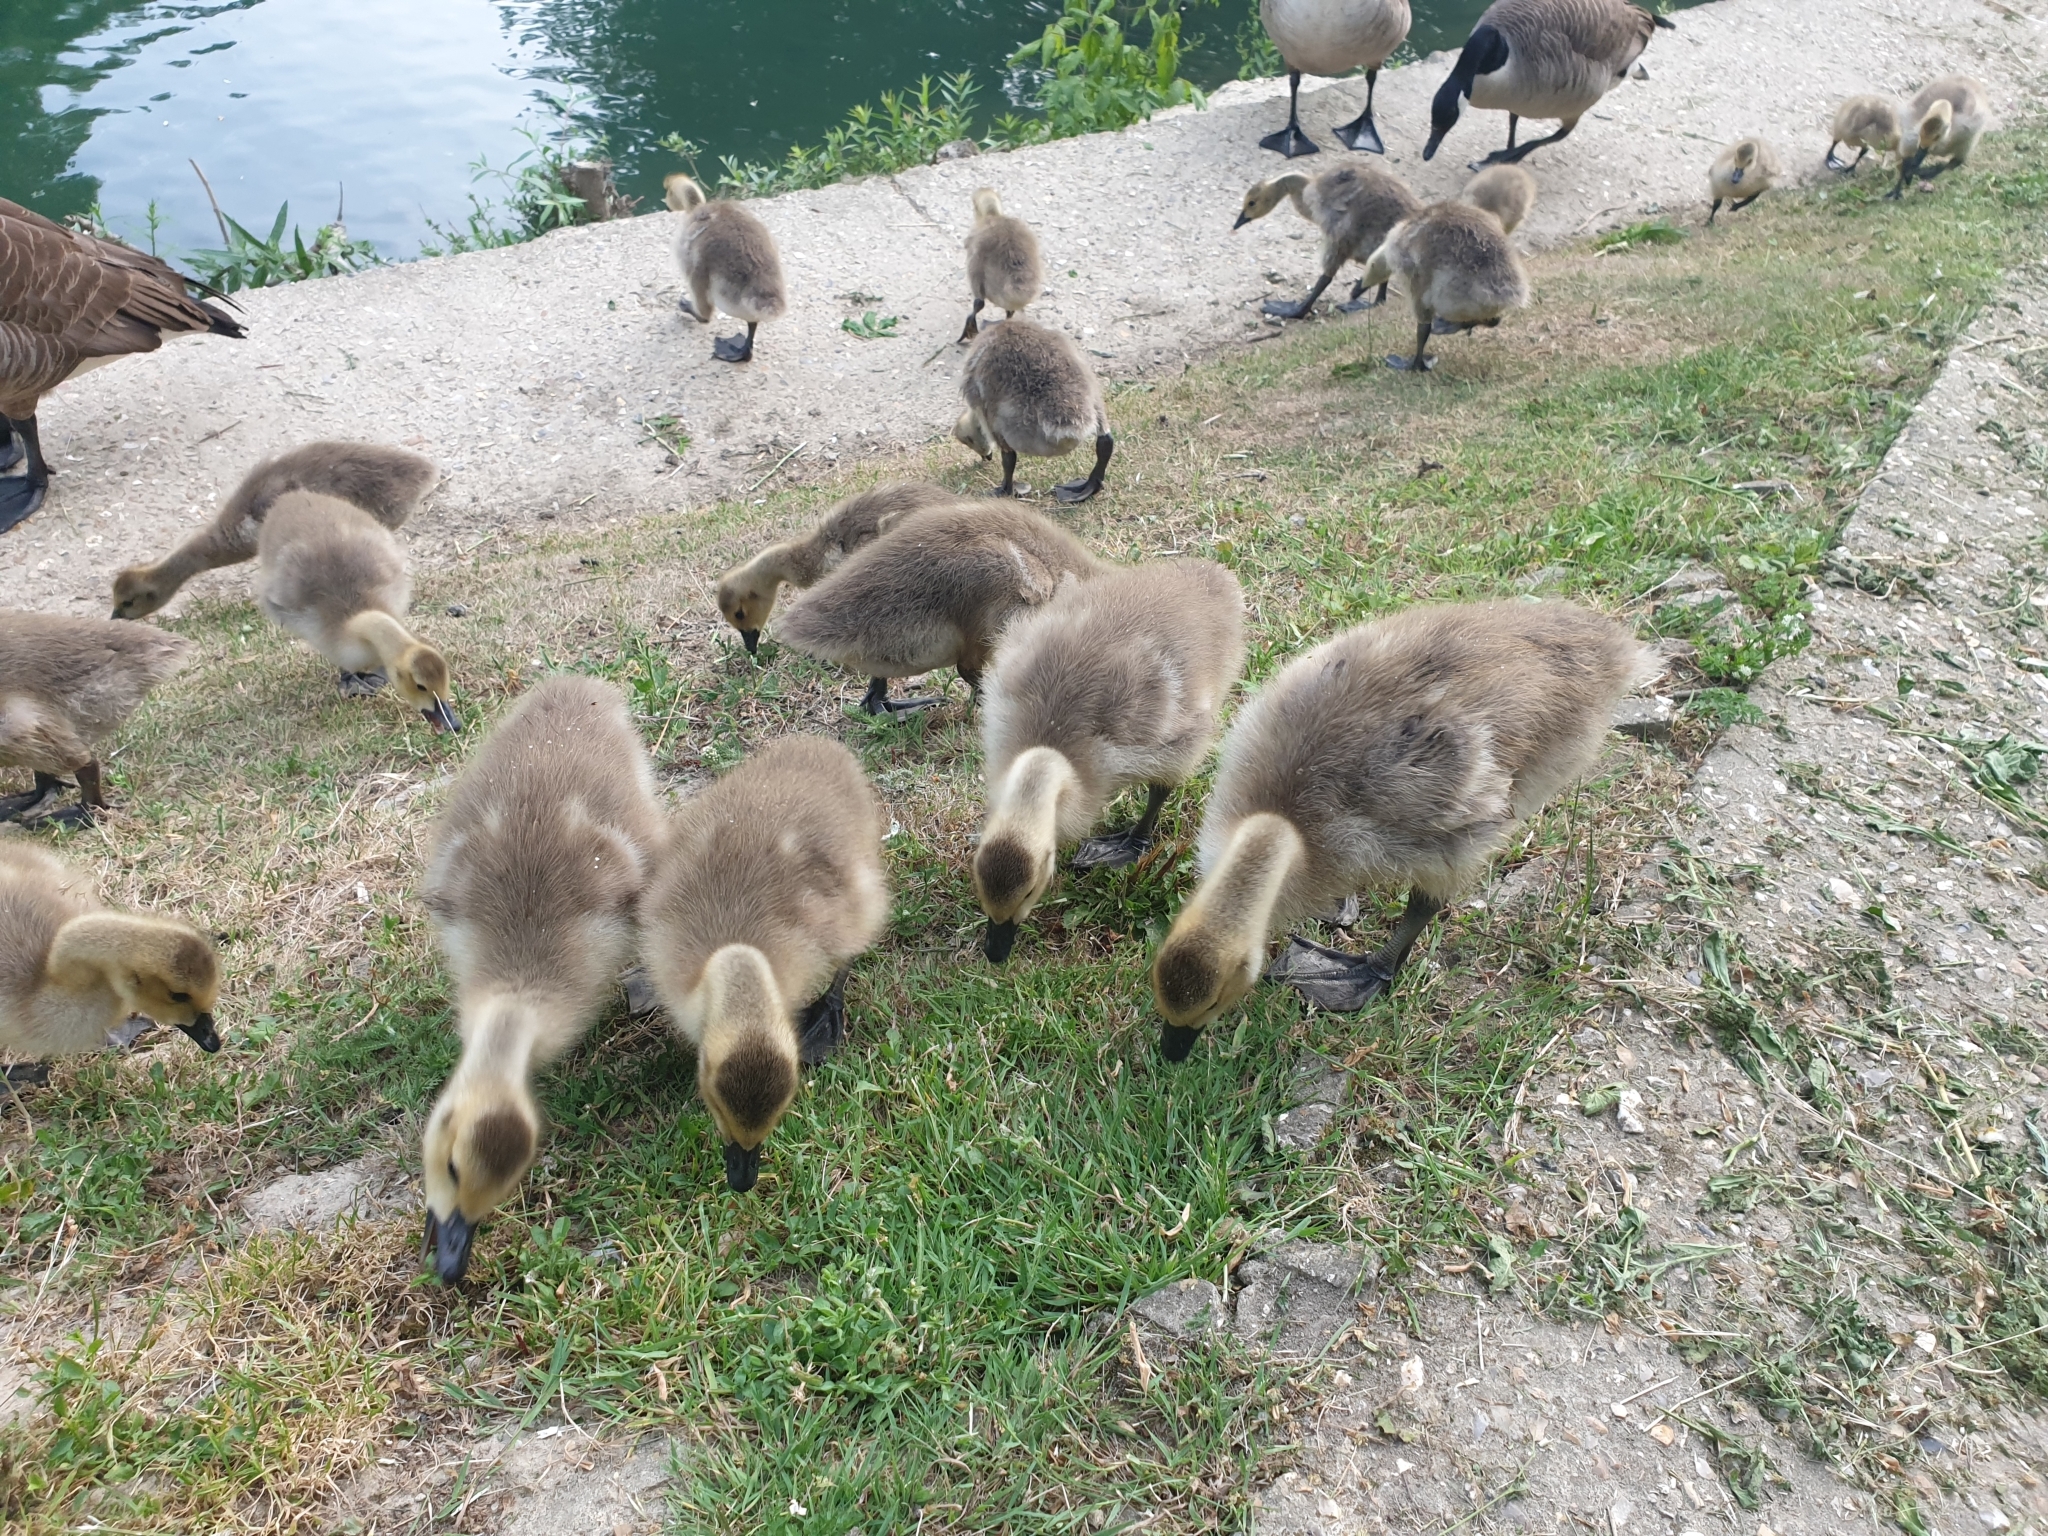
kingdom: Animalia
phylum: Chordata
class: Aves
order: Anseriformes
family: Anatidae
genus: Branta
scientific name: Branta canadensis
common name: Canada goose
